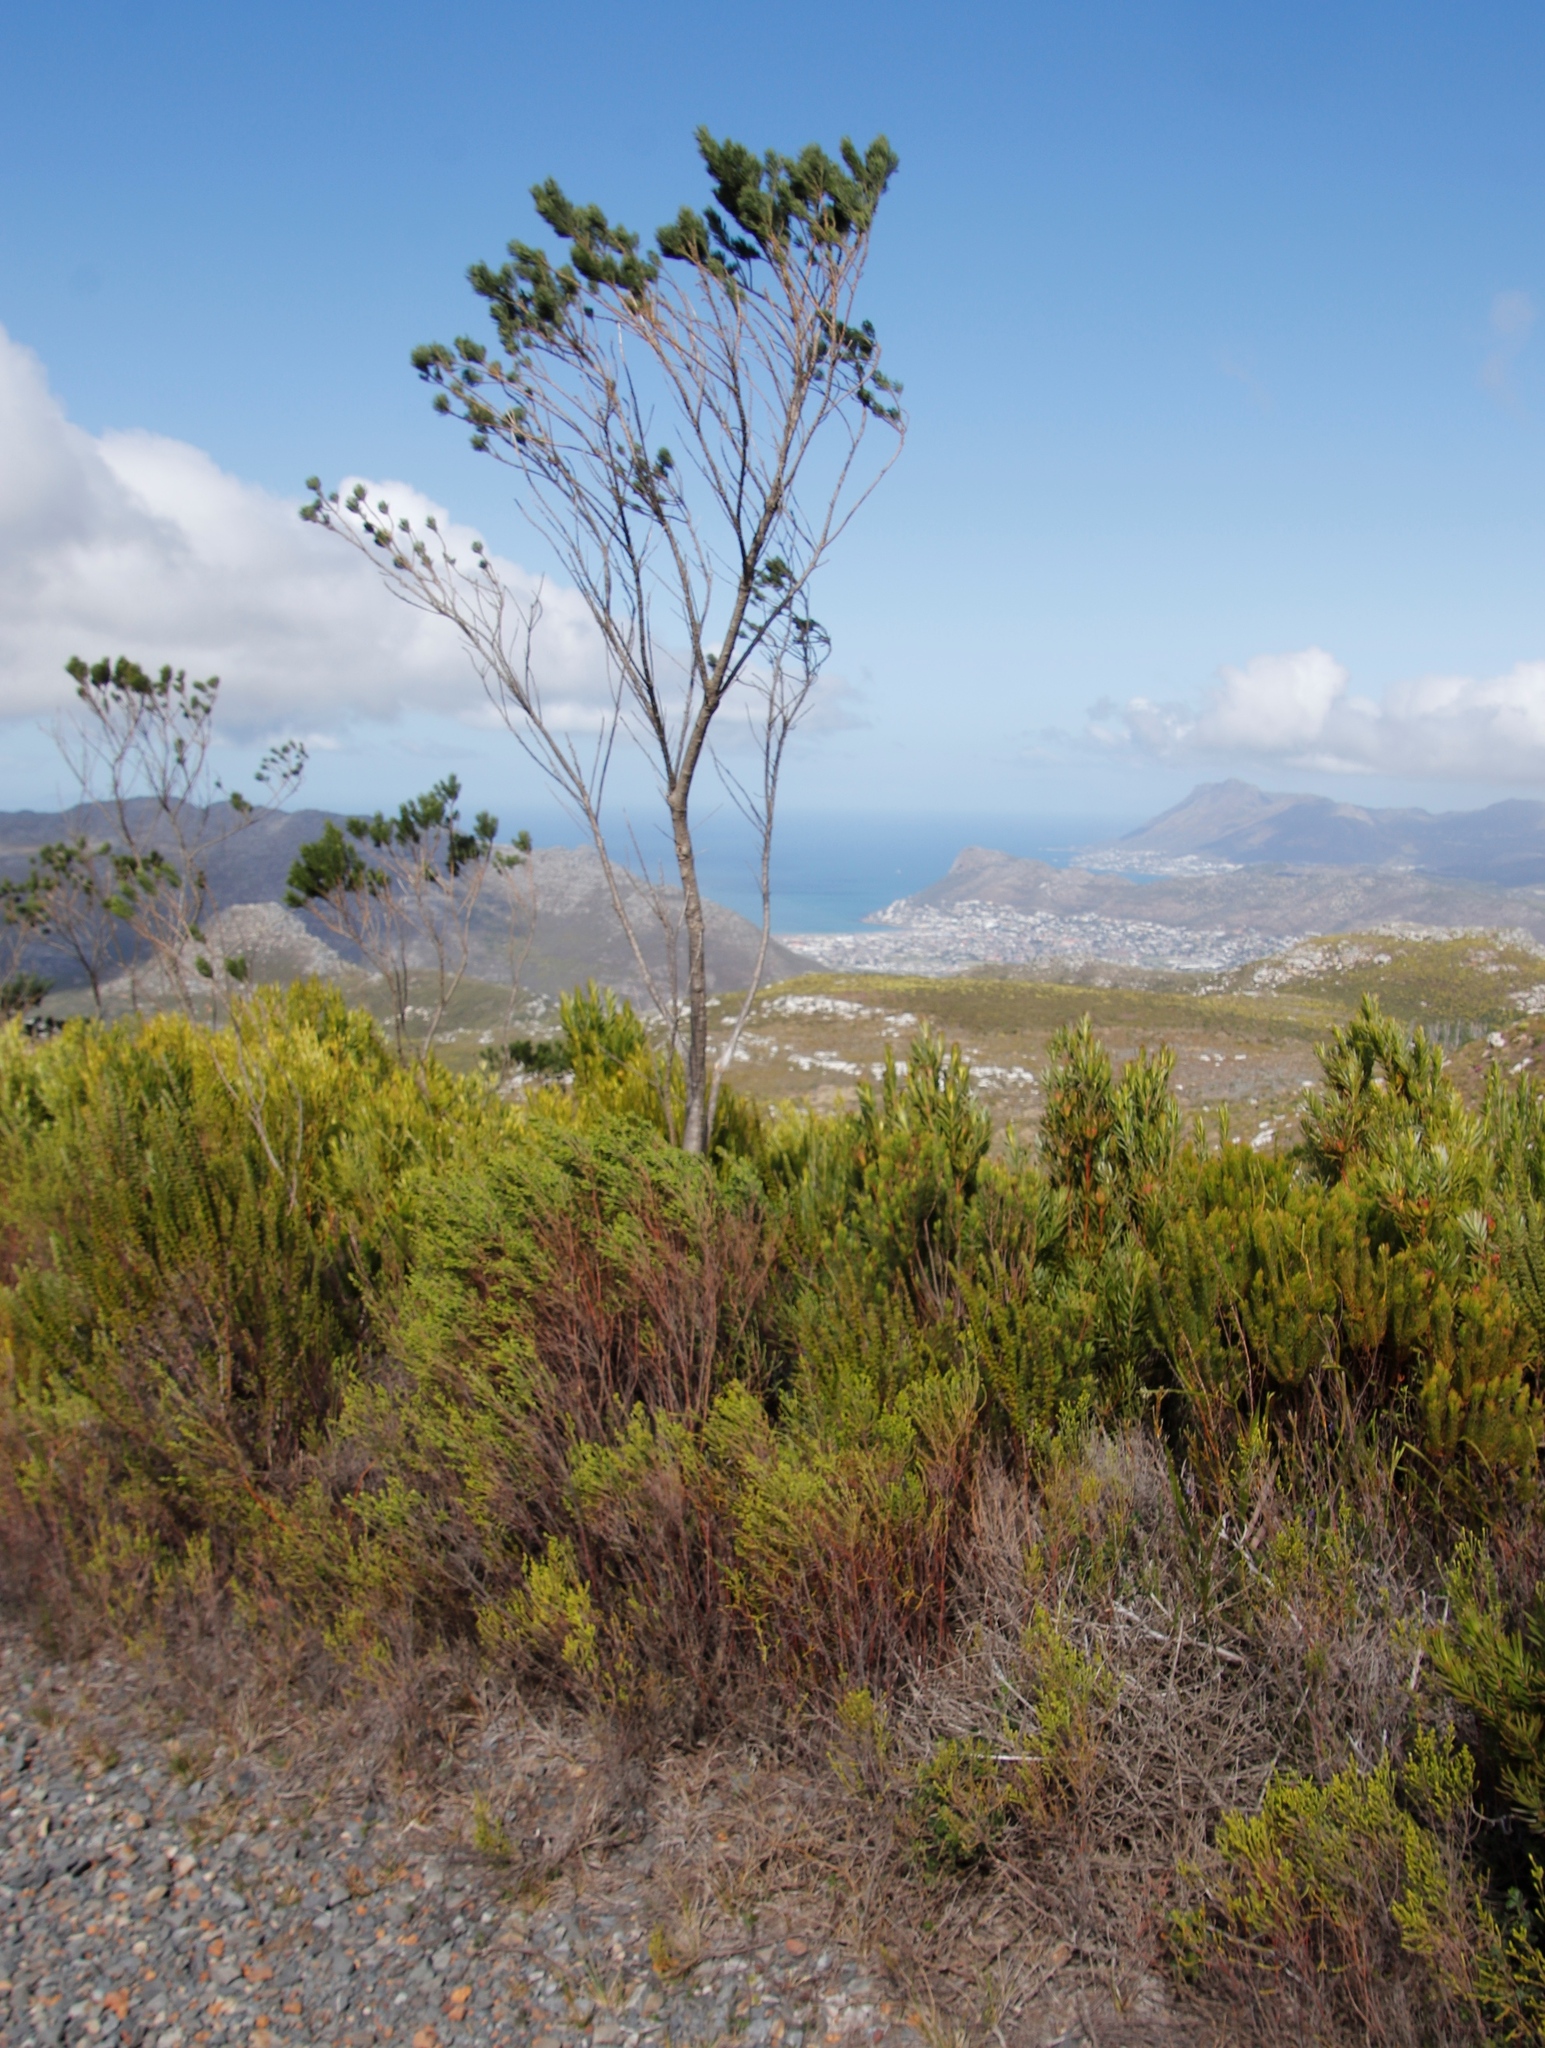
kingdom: Plantae
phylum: Tracheophyta
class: Magnoliopsida
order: Fabales
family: Fabaceae
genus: Psoralea
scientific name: Psoralea pinnata
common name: African scurfpea
